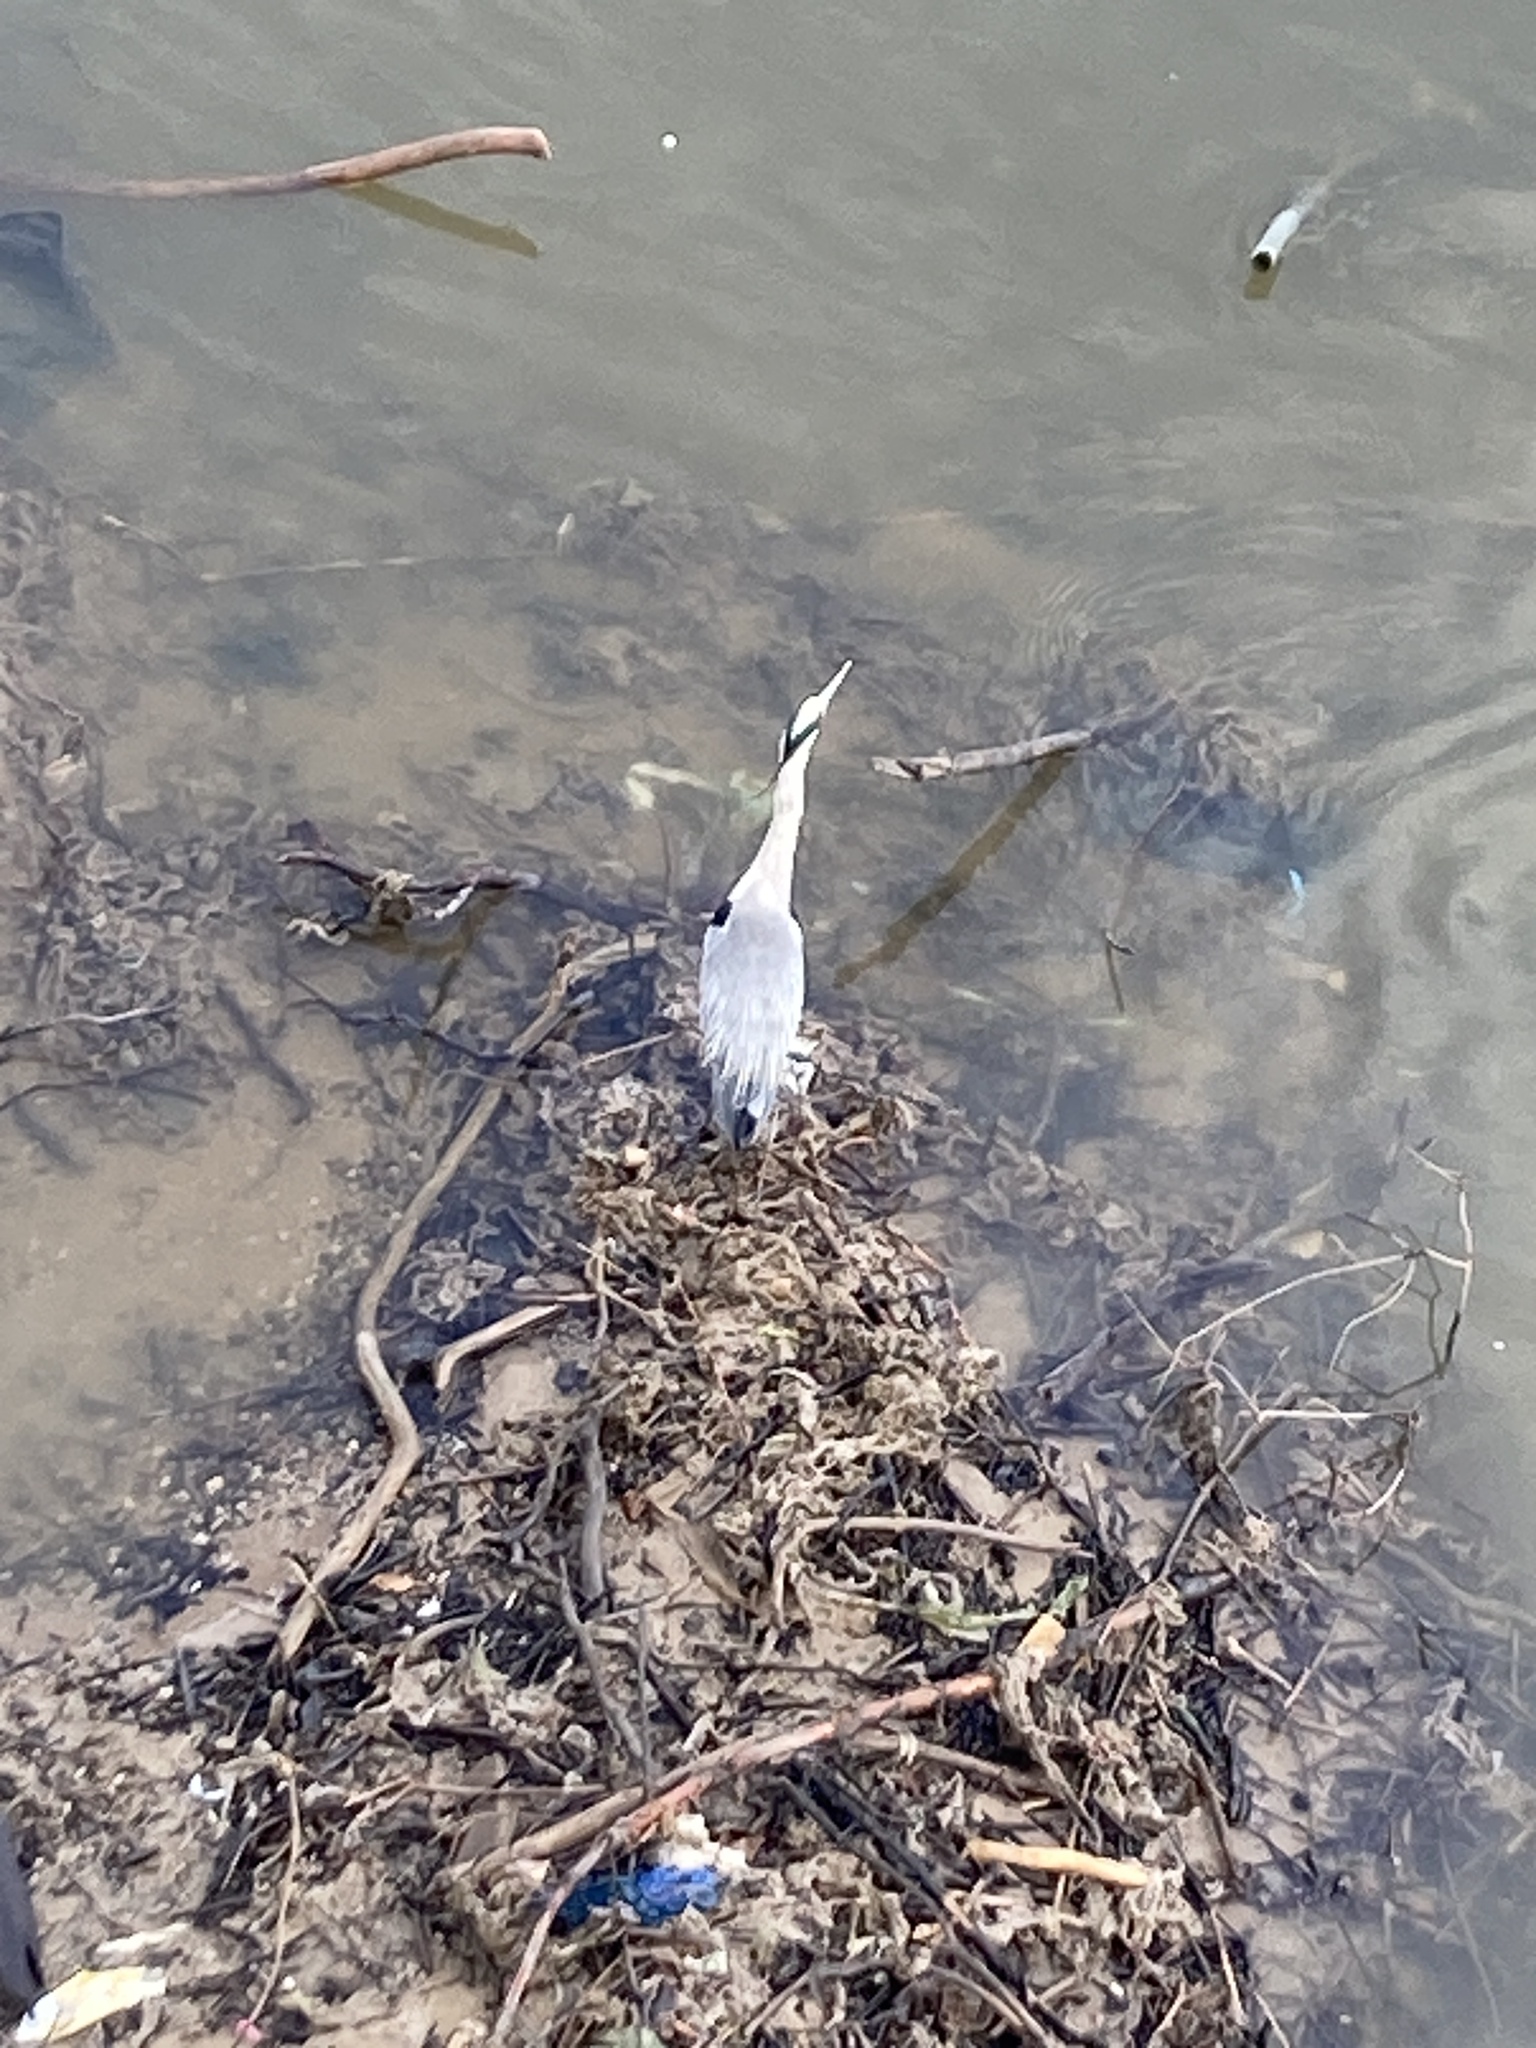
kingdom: Animalia
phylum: Chordata
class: Aves
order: Pelecaniformes
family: Ardeidae
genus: Ardea
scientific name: Ardea cinerea
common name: Grey heron
